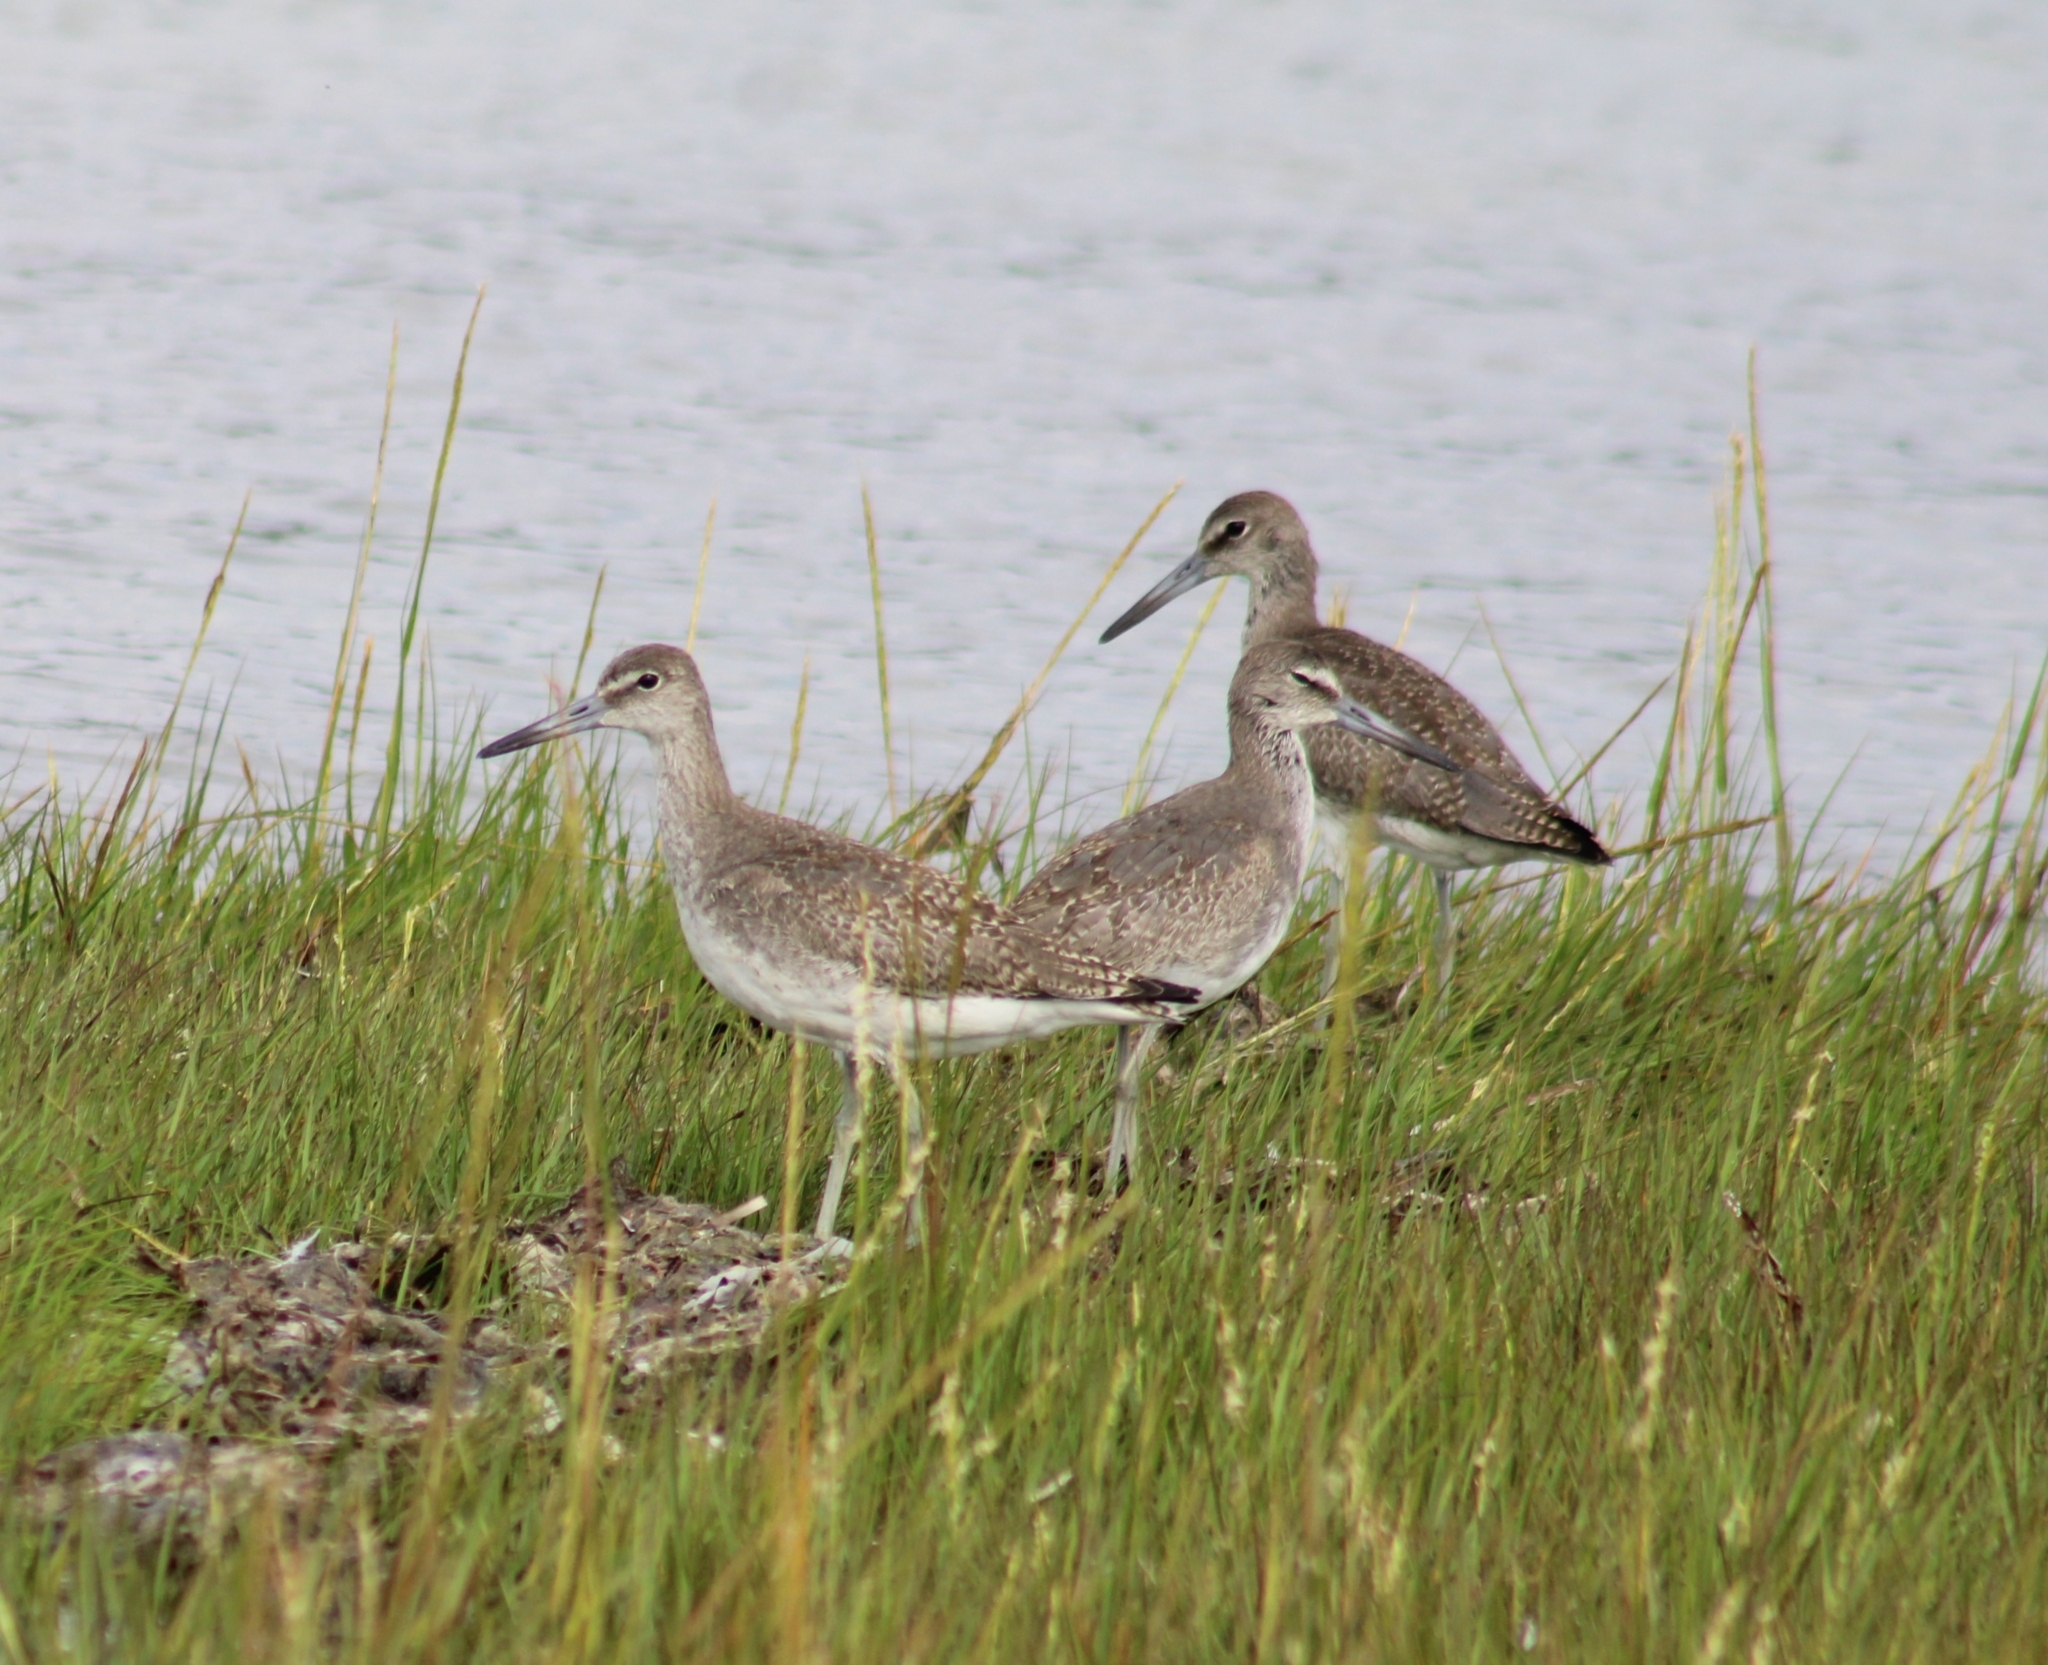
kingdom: Animalia
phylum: Chordata
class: Aves
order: Charadriiformes
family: Scolopacidae
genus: Tringa
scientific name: Tringa semipalmata
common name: Willet
